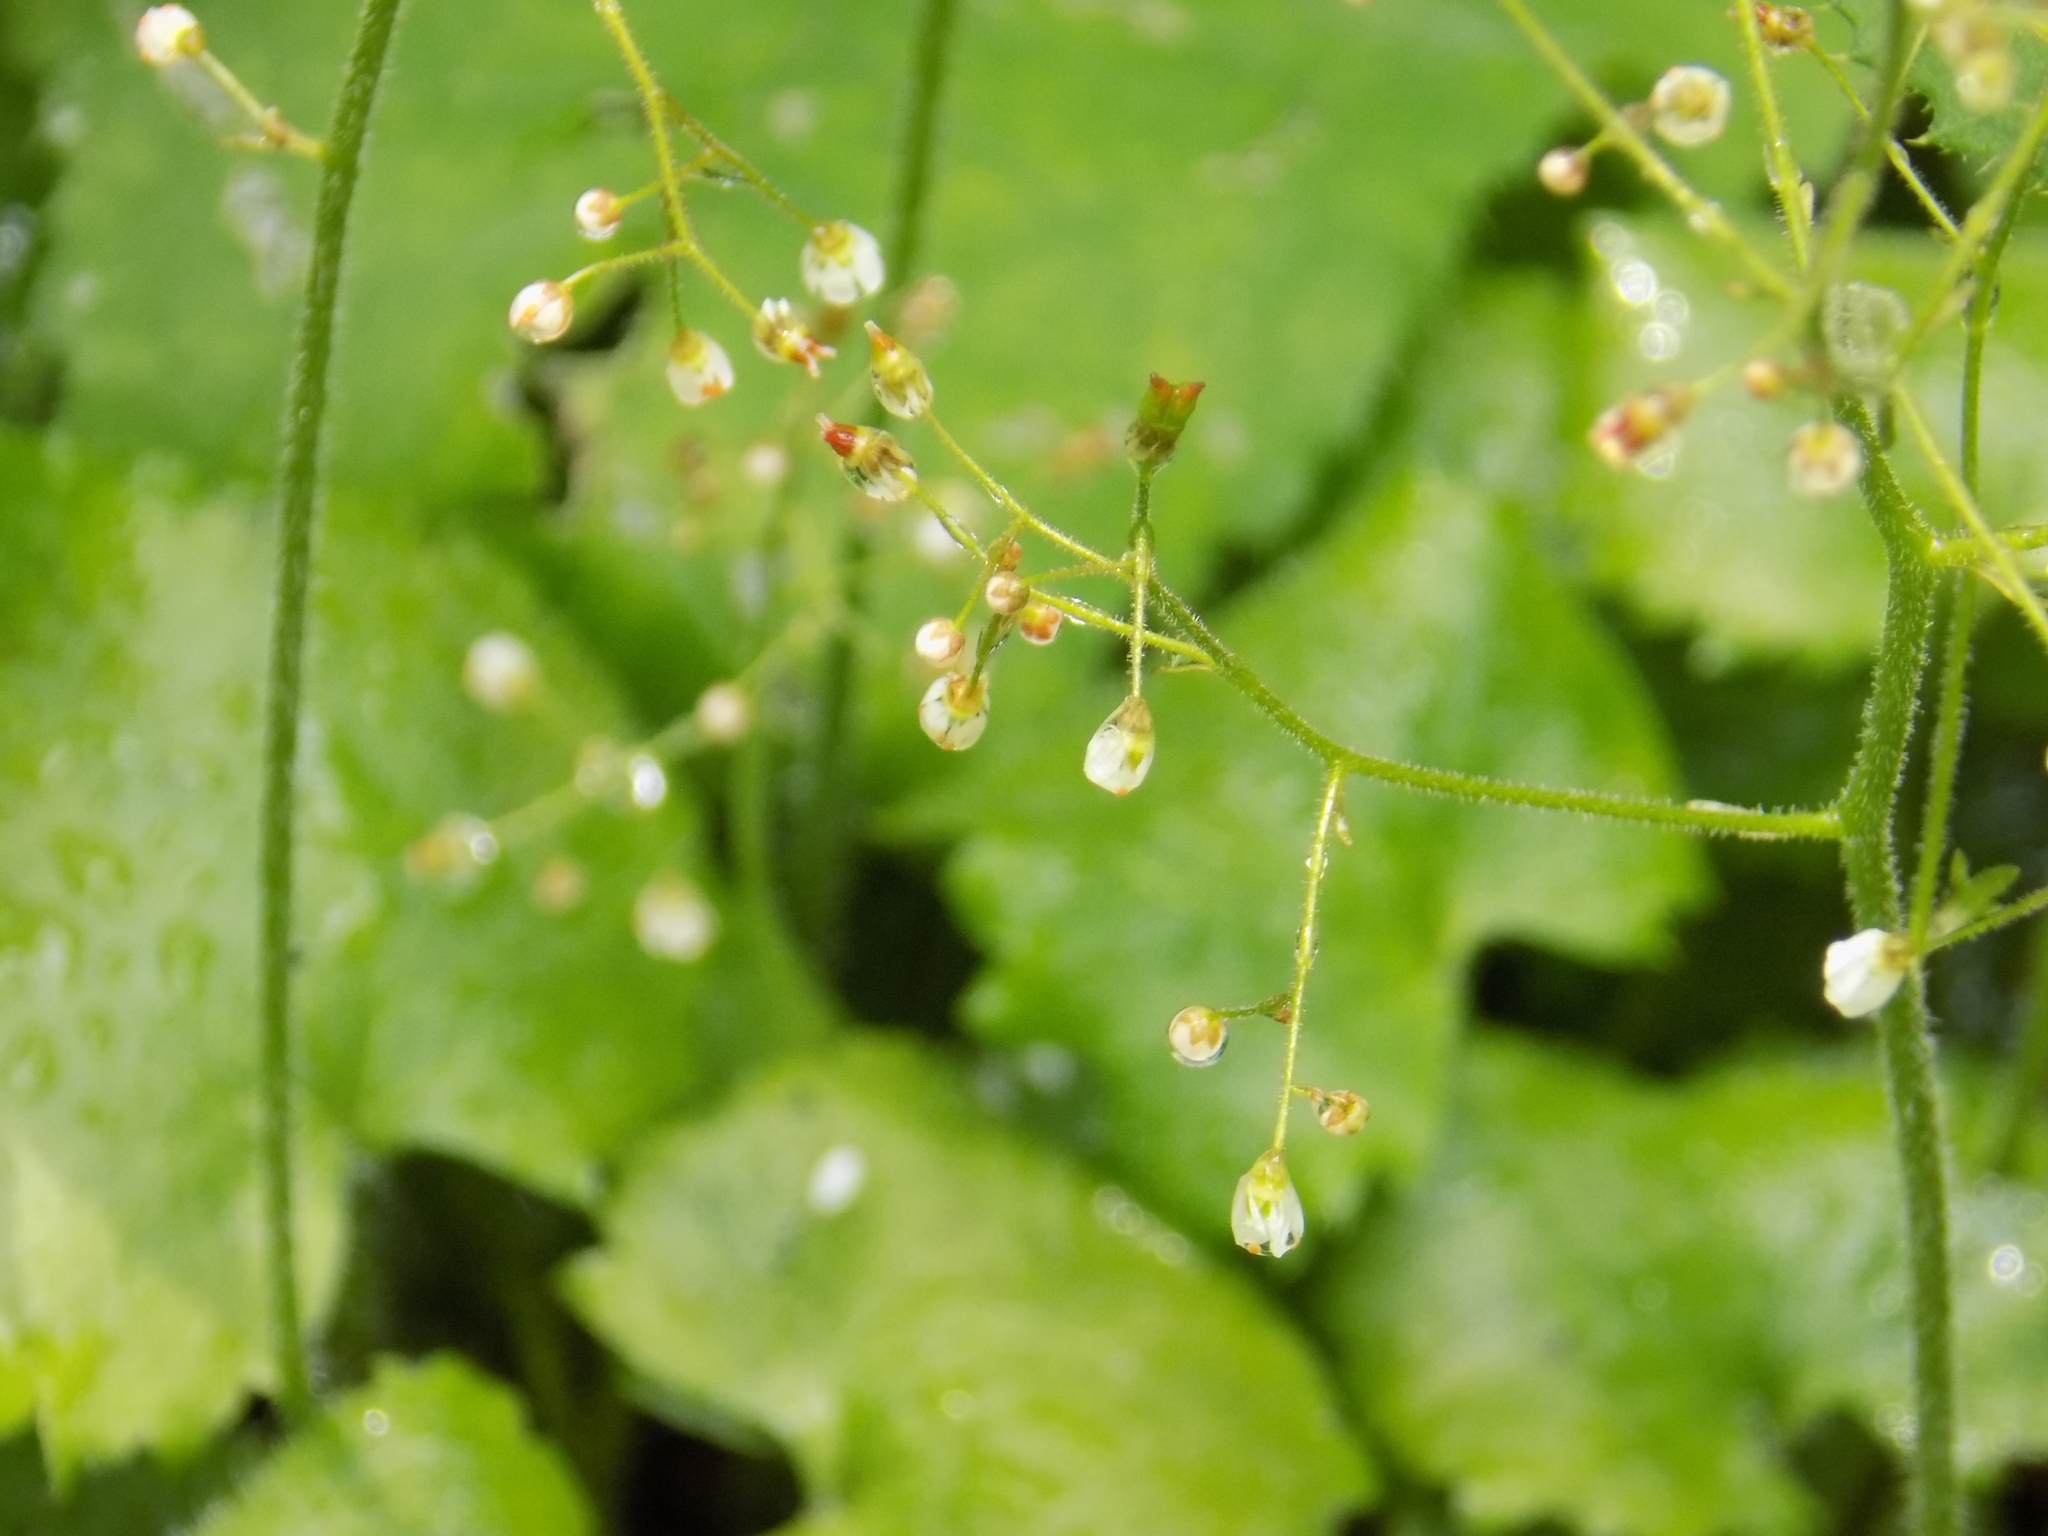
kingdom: Plantae
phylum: Tracheophyta
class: Magnoliopsida
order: Saxifragales
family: Saxifragaceae
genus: Micranthes
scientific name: Micranthes nelsoniana
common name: Nelson's saxifrage
